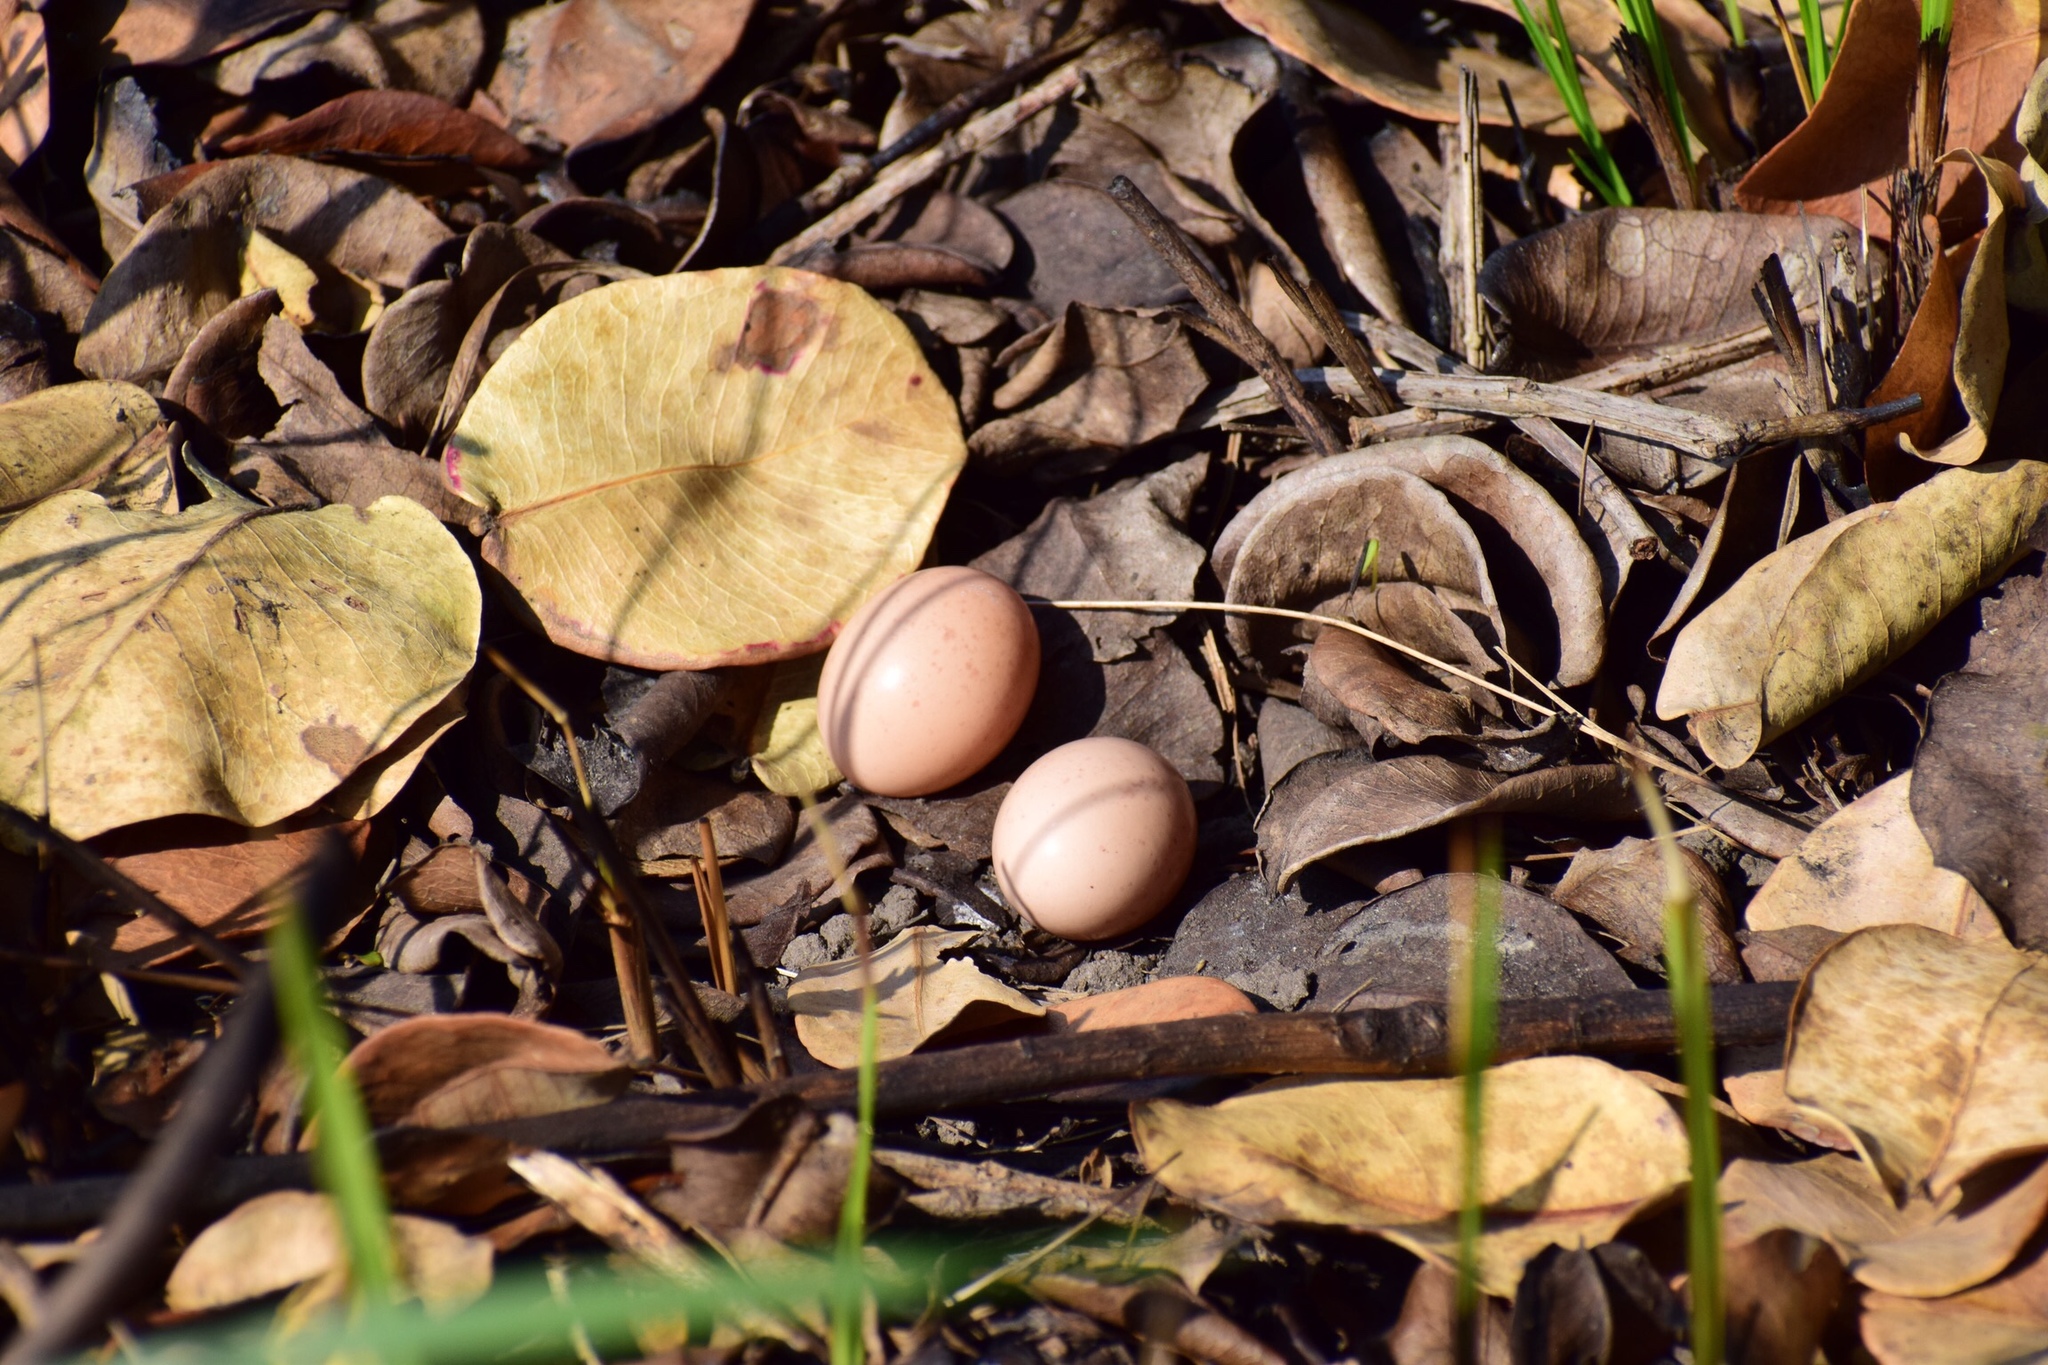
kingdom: Animalia
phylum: Chordata
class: Aves
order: Caprimulgiformes
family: Caprimulgidae
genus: Caprimulgus
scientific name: Caprimulgus pectoralis
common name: Fiery-necked nightjar
